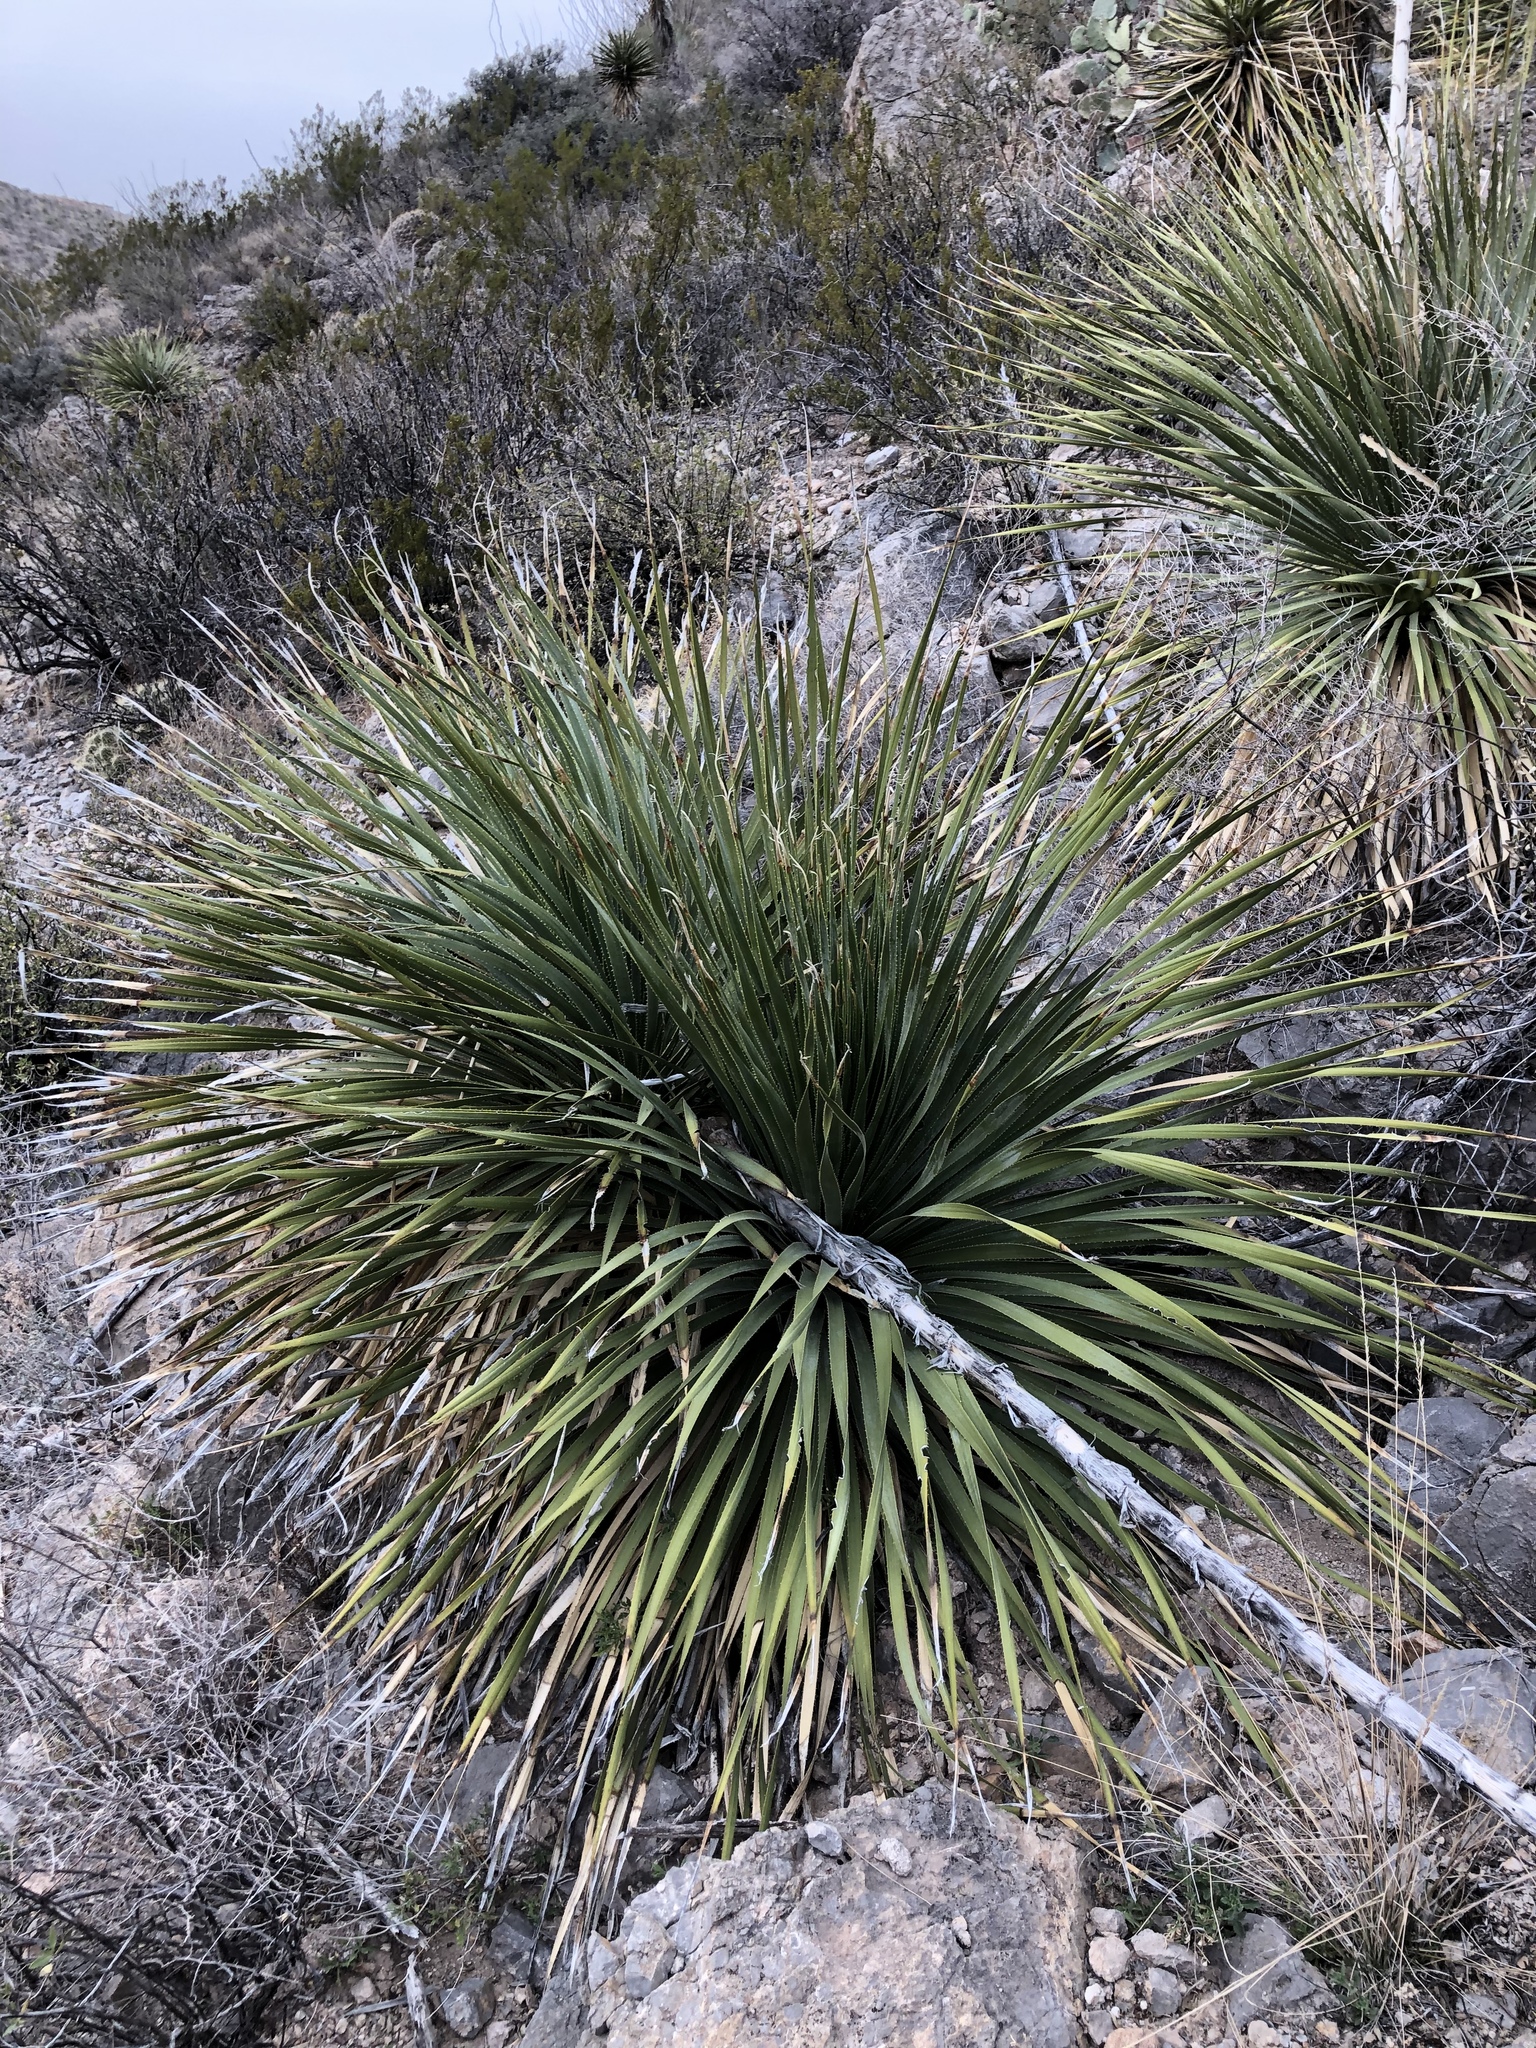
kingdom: Plantae
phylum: Tracheophyta
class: Liliopsida
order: Asparagales
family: Asparagaceae
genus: Dasylirion
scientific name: Dasylirion wheeleri
